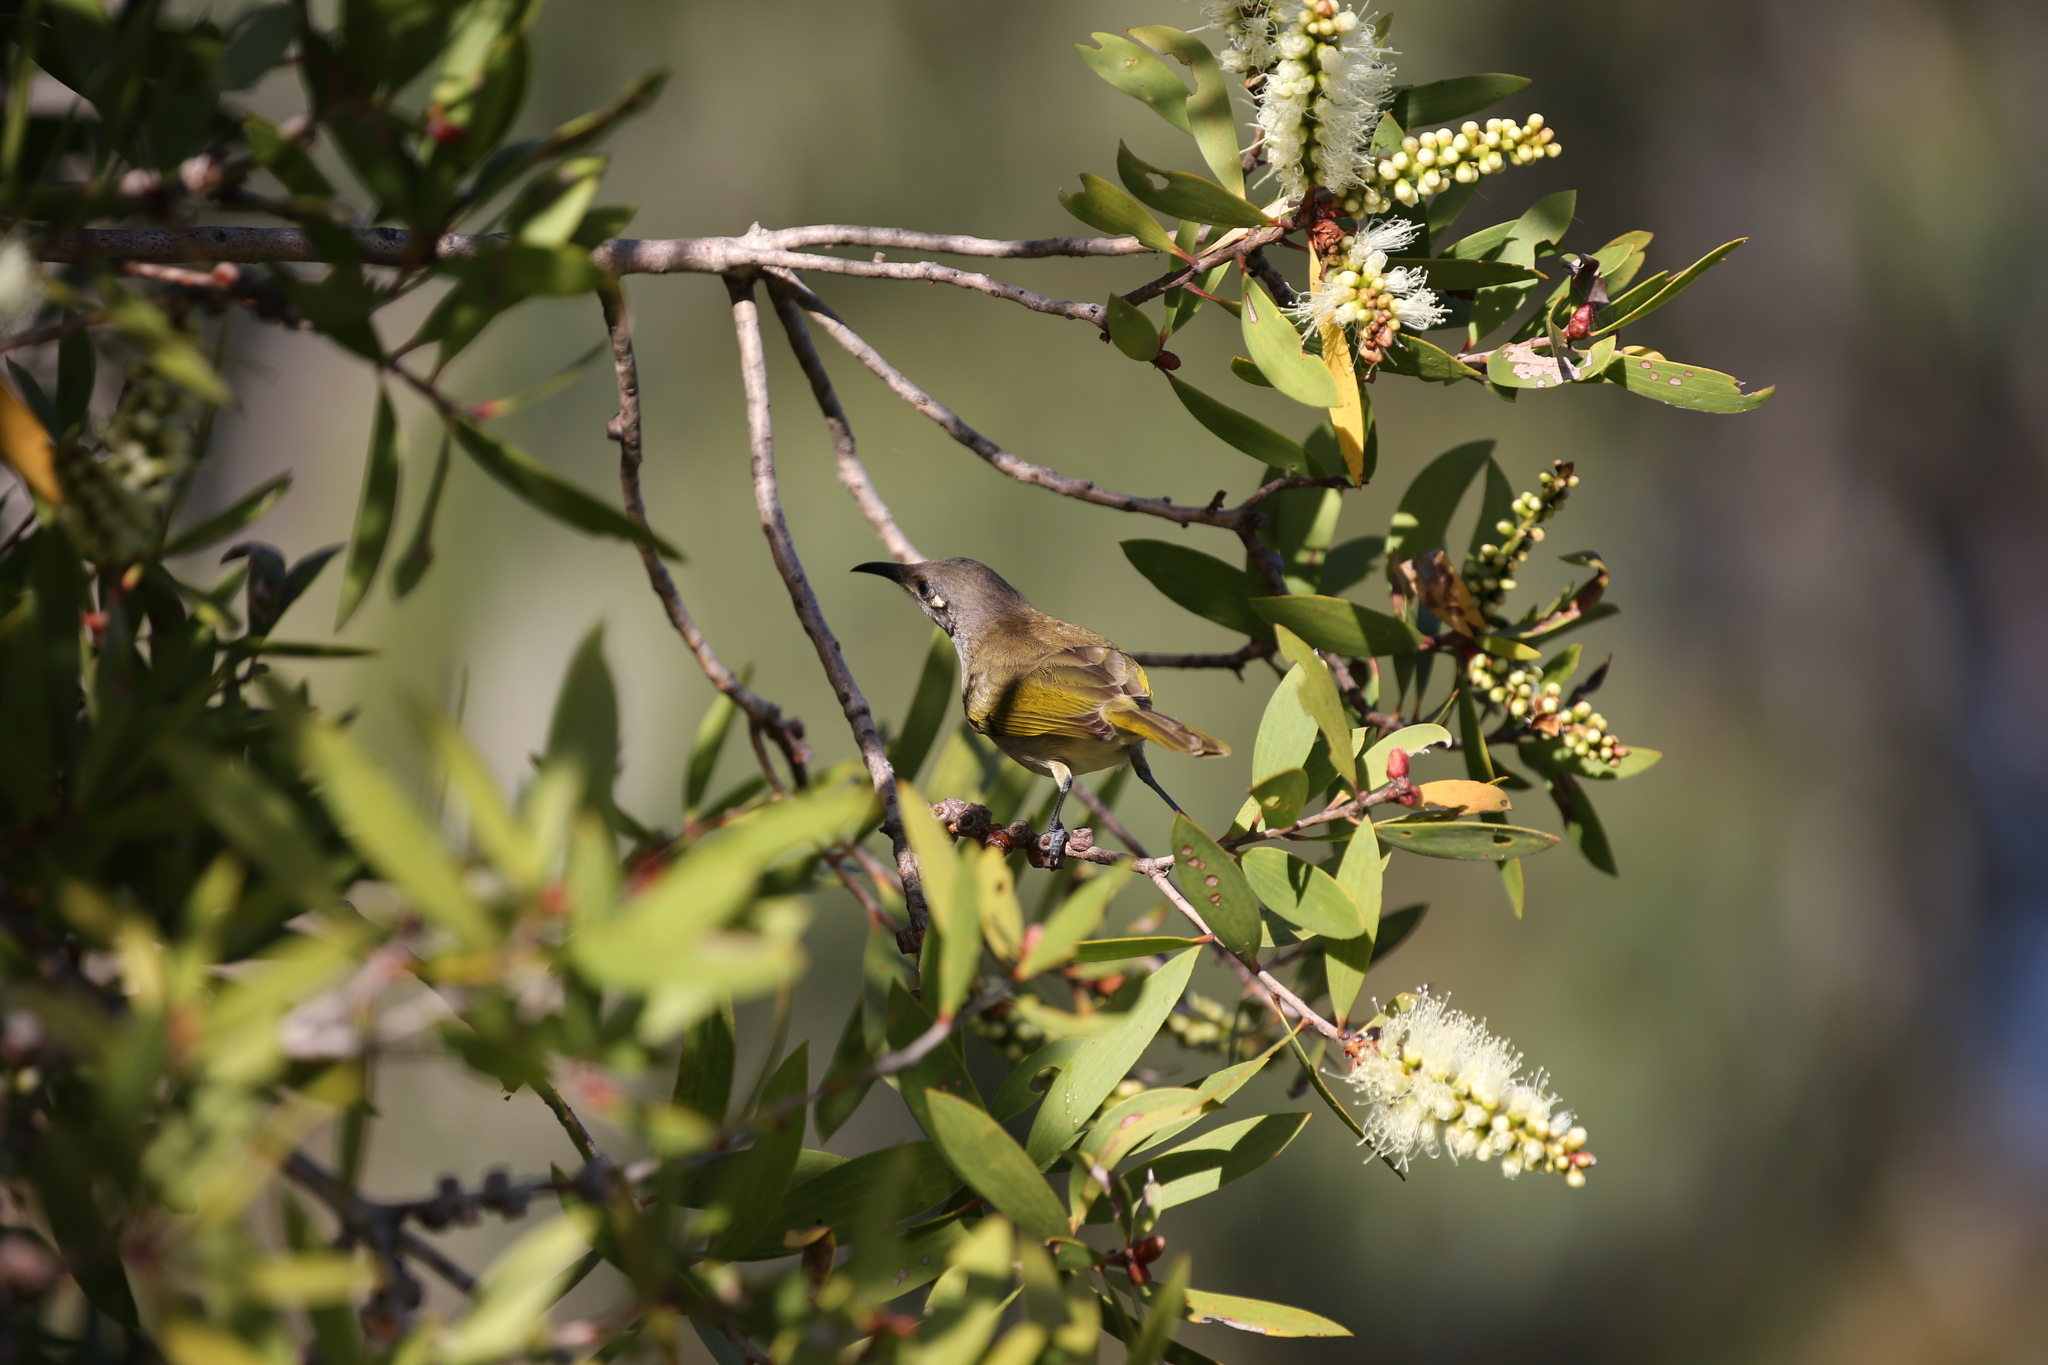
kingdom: Animalia
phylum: Chordata
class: Aves
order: Passeriformes
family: Meliphagidae
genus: Lichmera
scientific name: Lichmera indistincta
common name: Brown honeyeater
